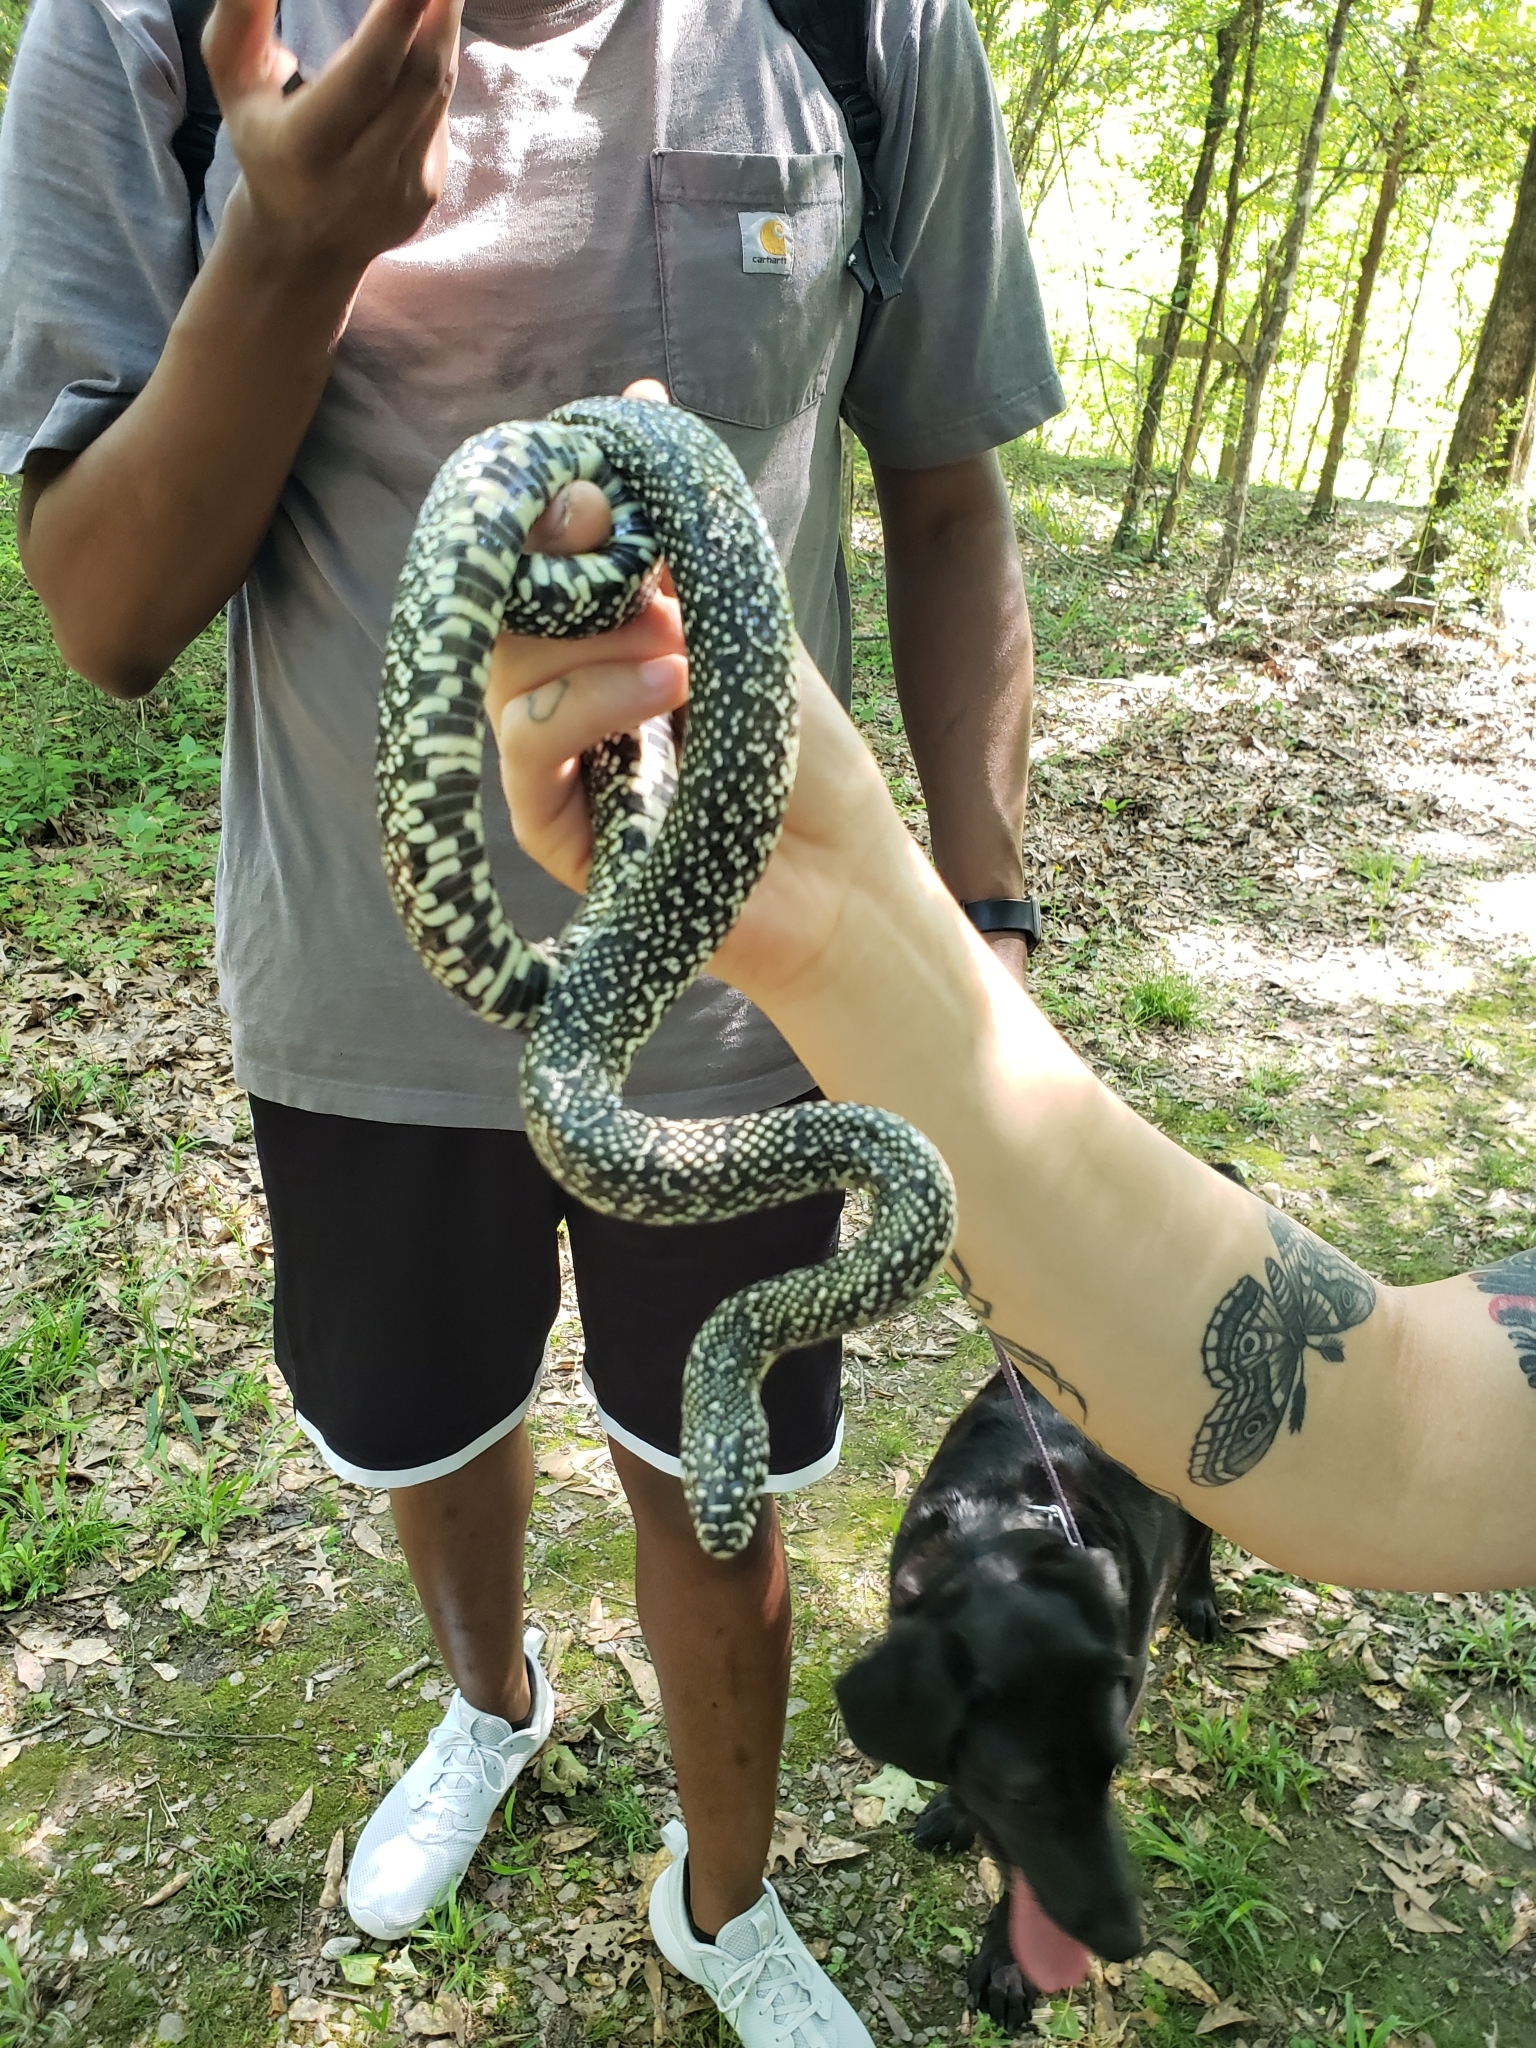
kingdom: Animalia
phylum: Chordata
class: Squamata
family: Colubridae
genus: Lampropeltis
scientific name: Lampropeltis holbrooki
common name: Speckled kingsnake
